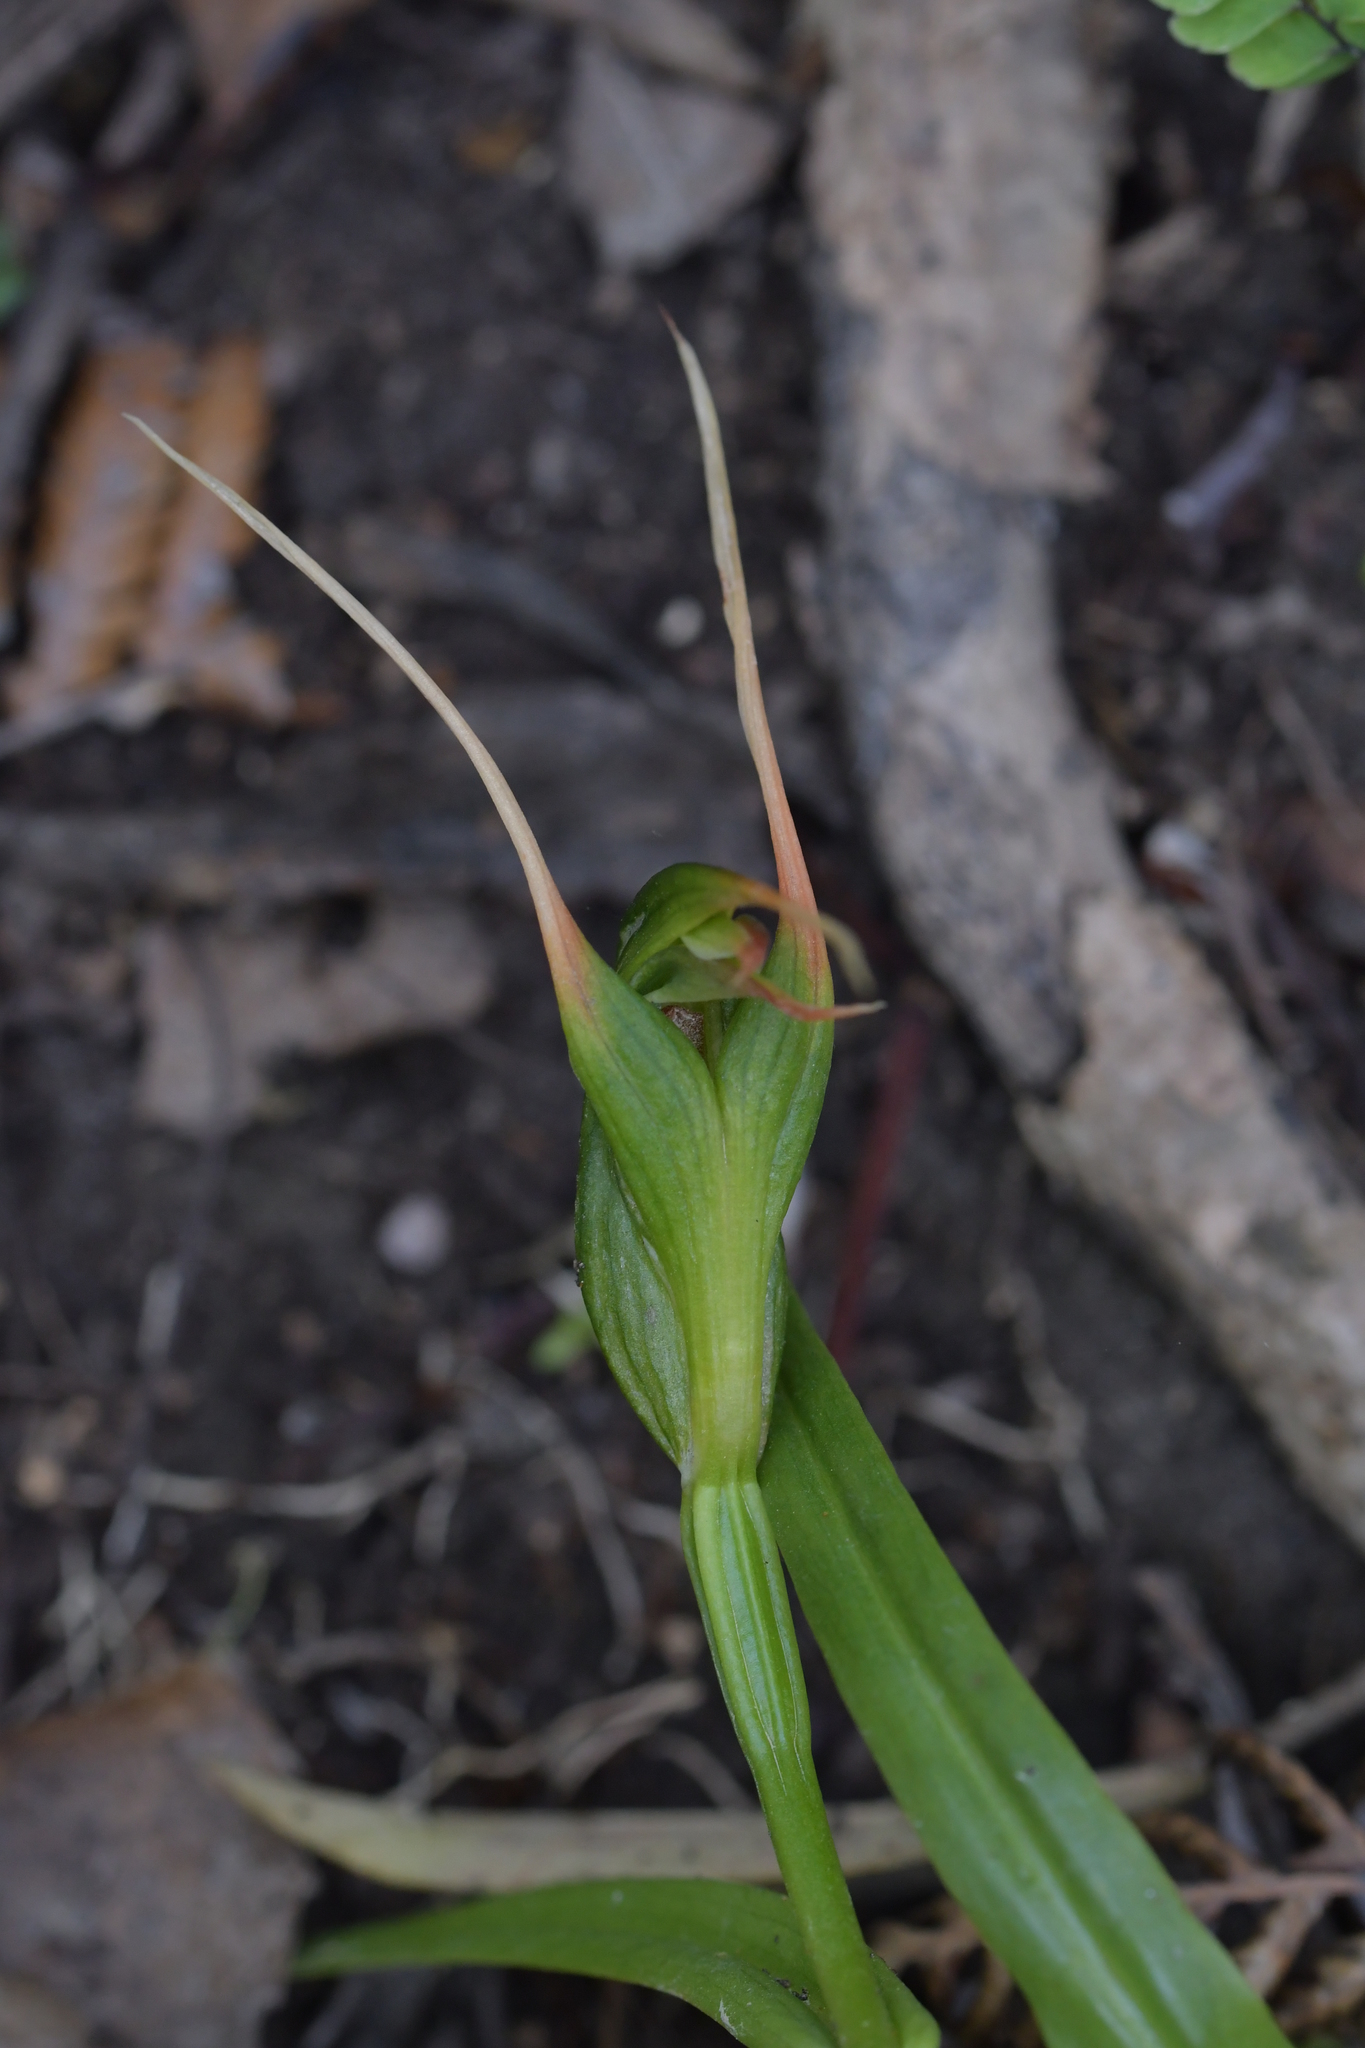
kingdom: Plantae
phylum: Tracheophyta
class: Liliopsida
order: Asparagales
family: Orchidaceae
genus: Pterostylis
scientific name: Pterostylis banksii
